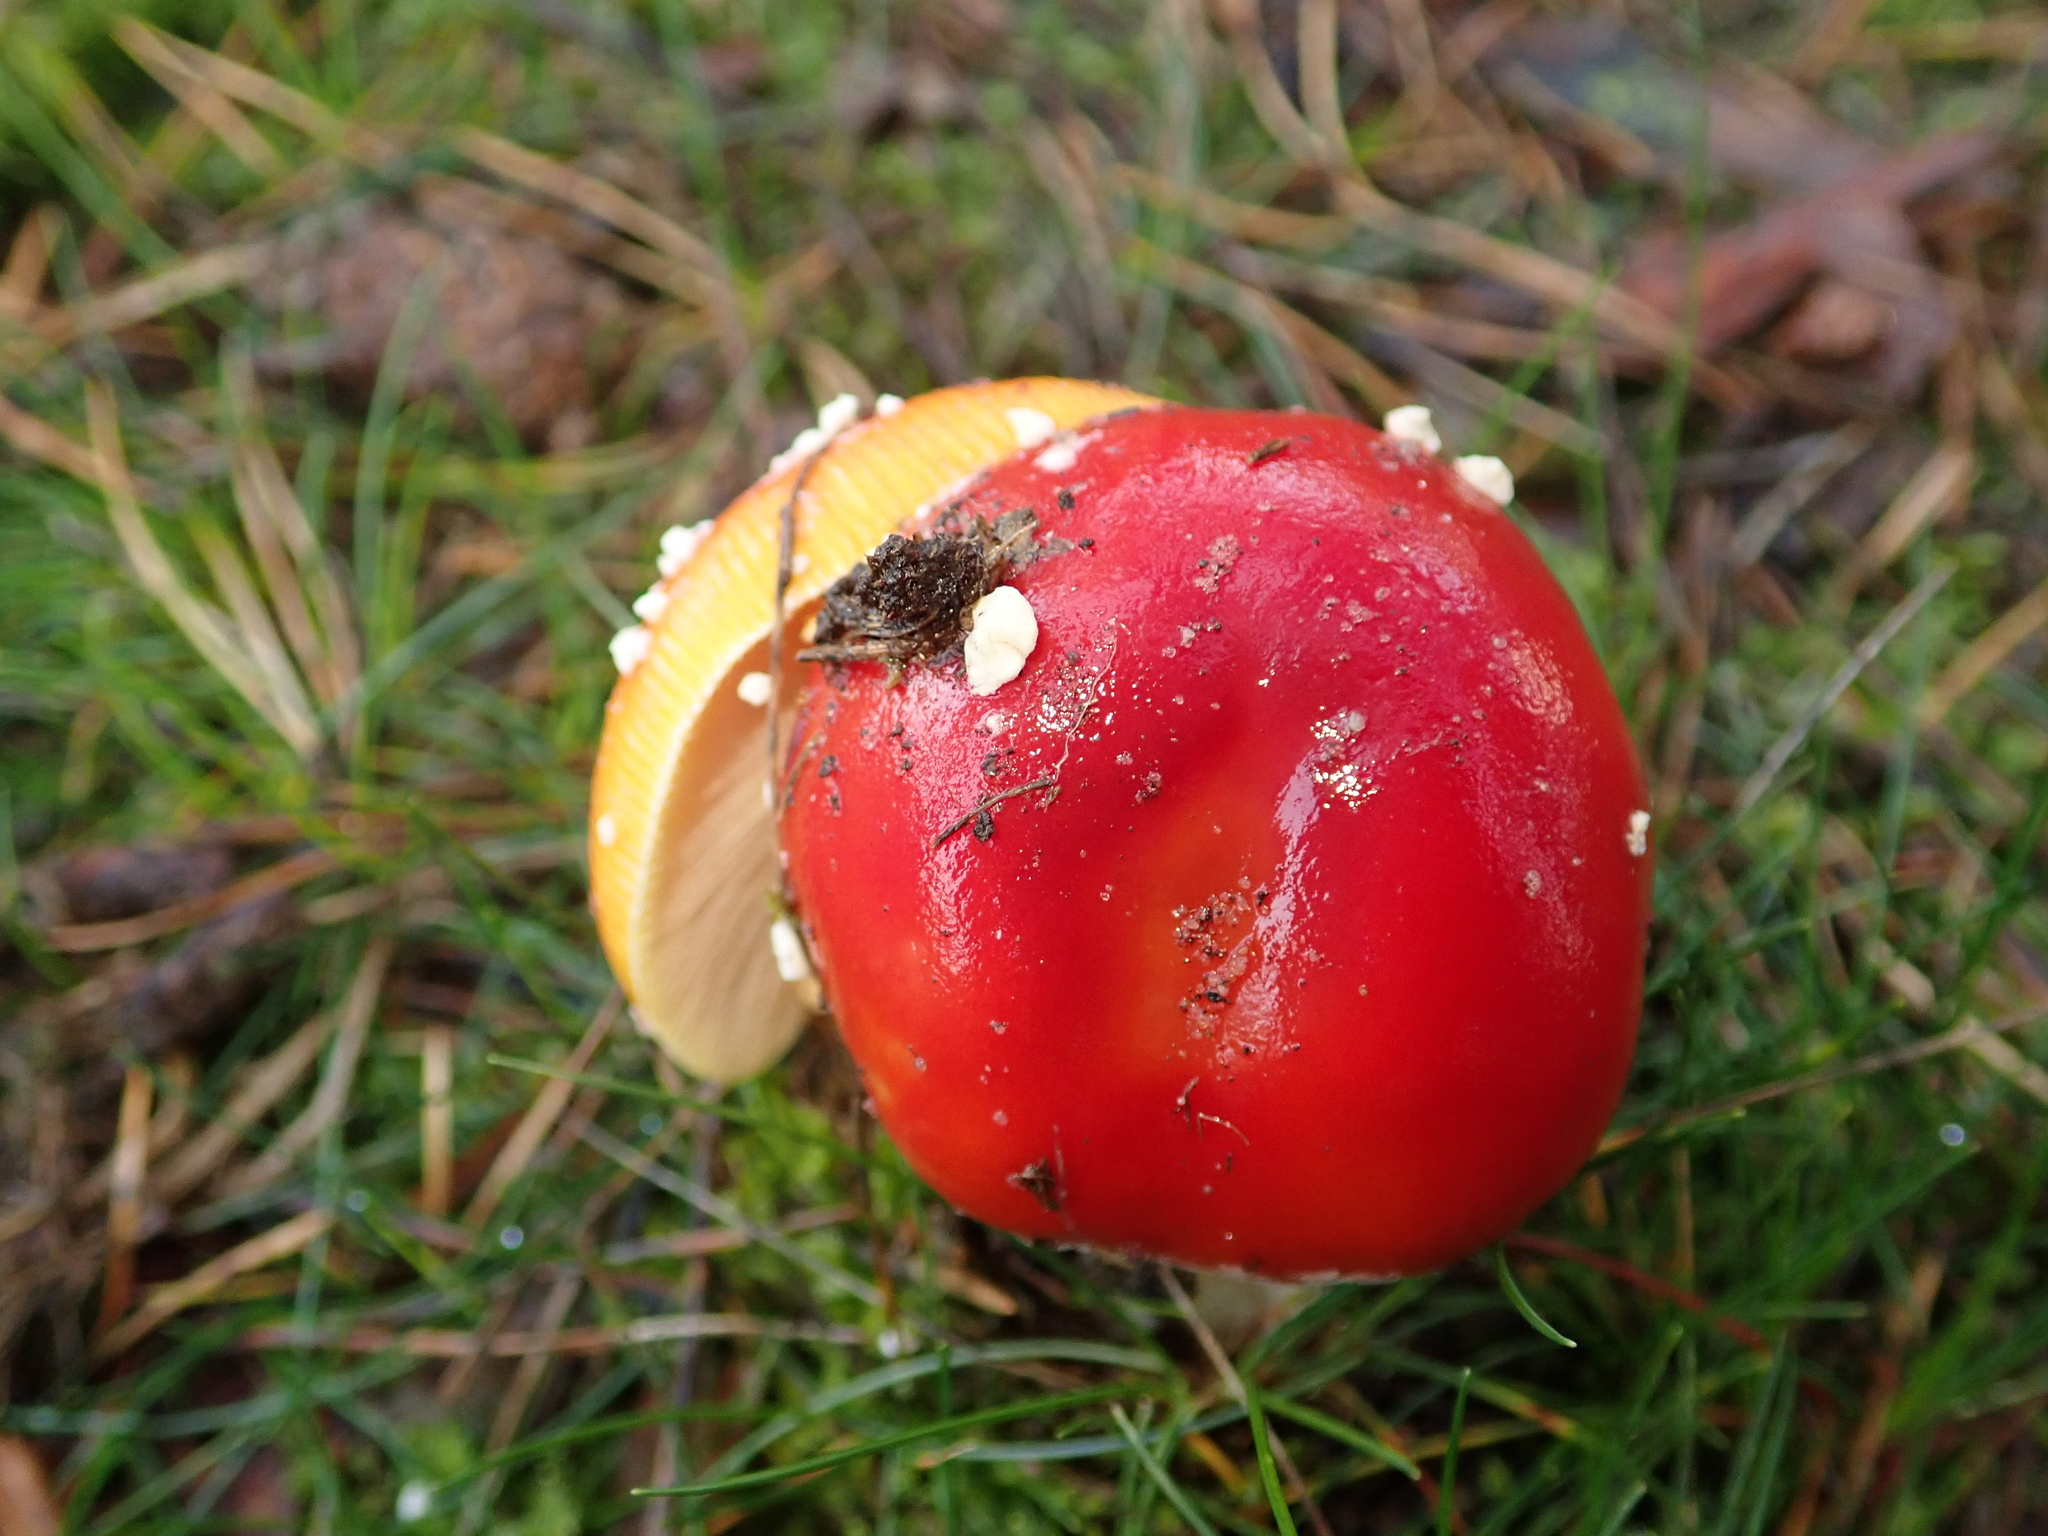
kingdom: Fungi
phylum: Basidiomycota
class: Agaricomycetes
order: Agaricales
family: Amanitaceae
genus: Amanita
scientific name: Amanita muscaria
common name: Fly agaric
